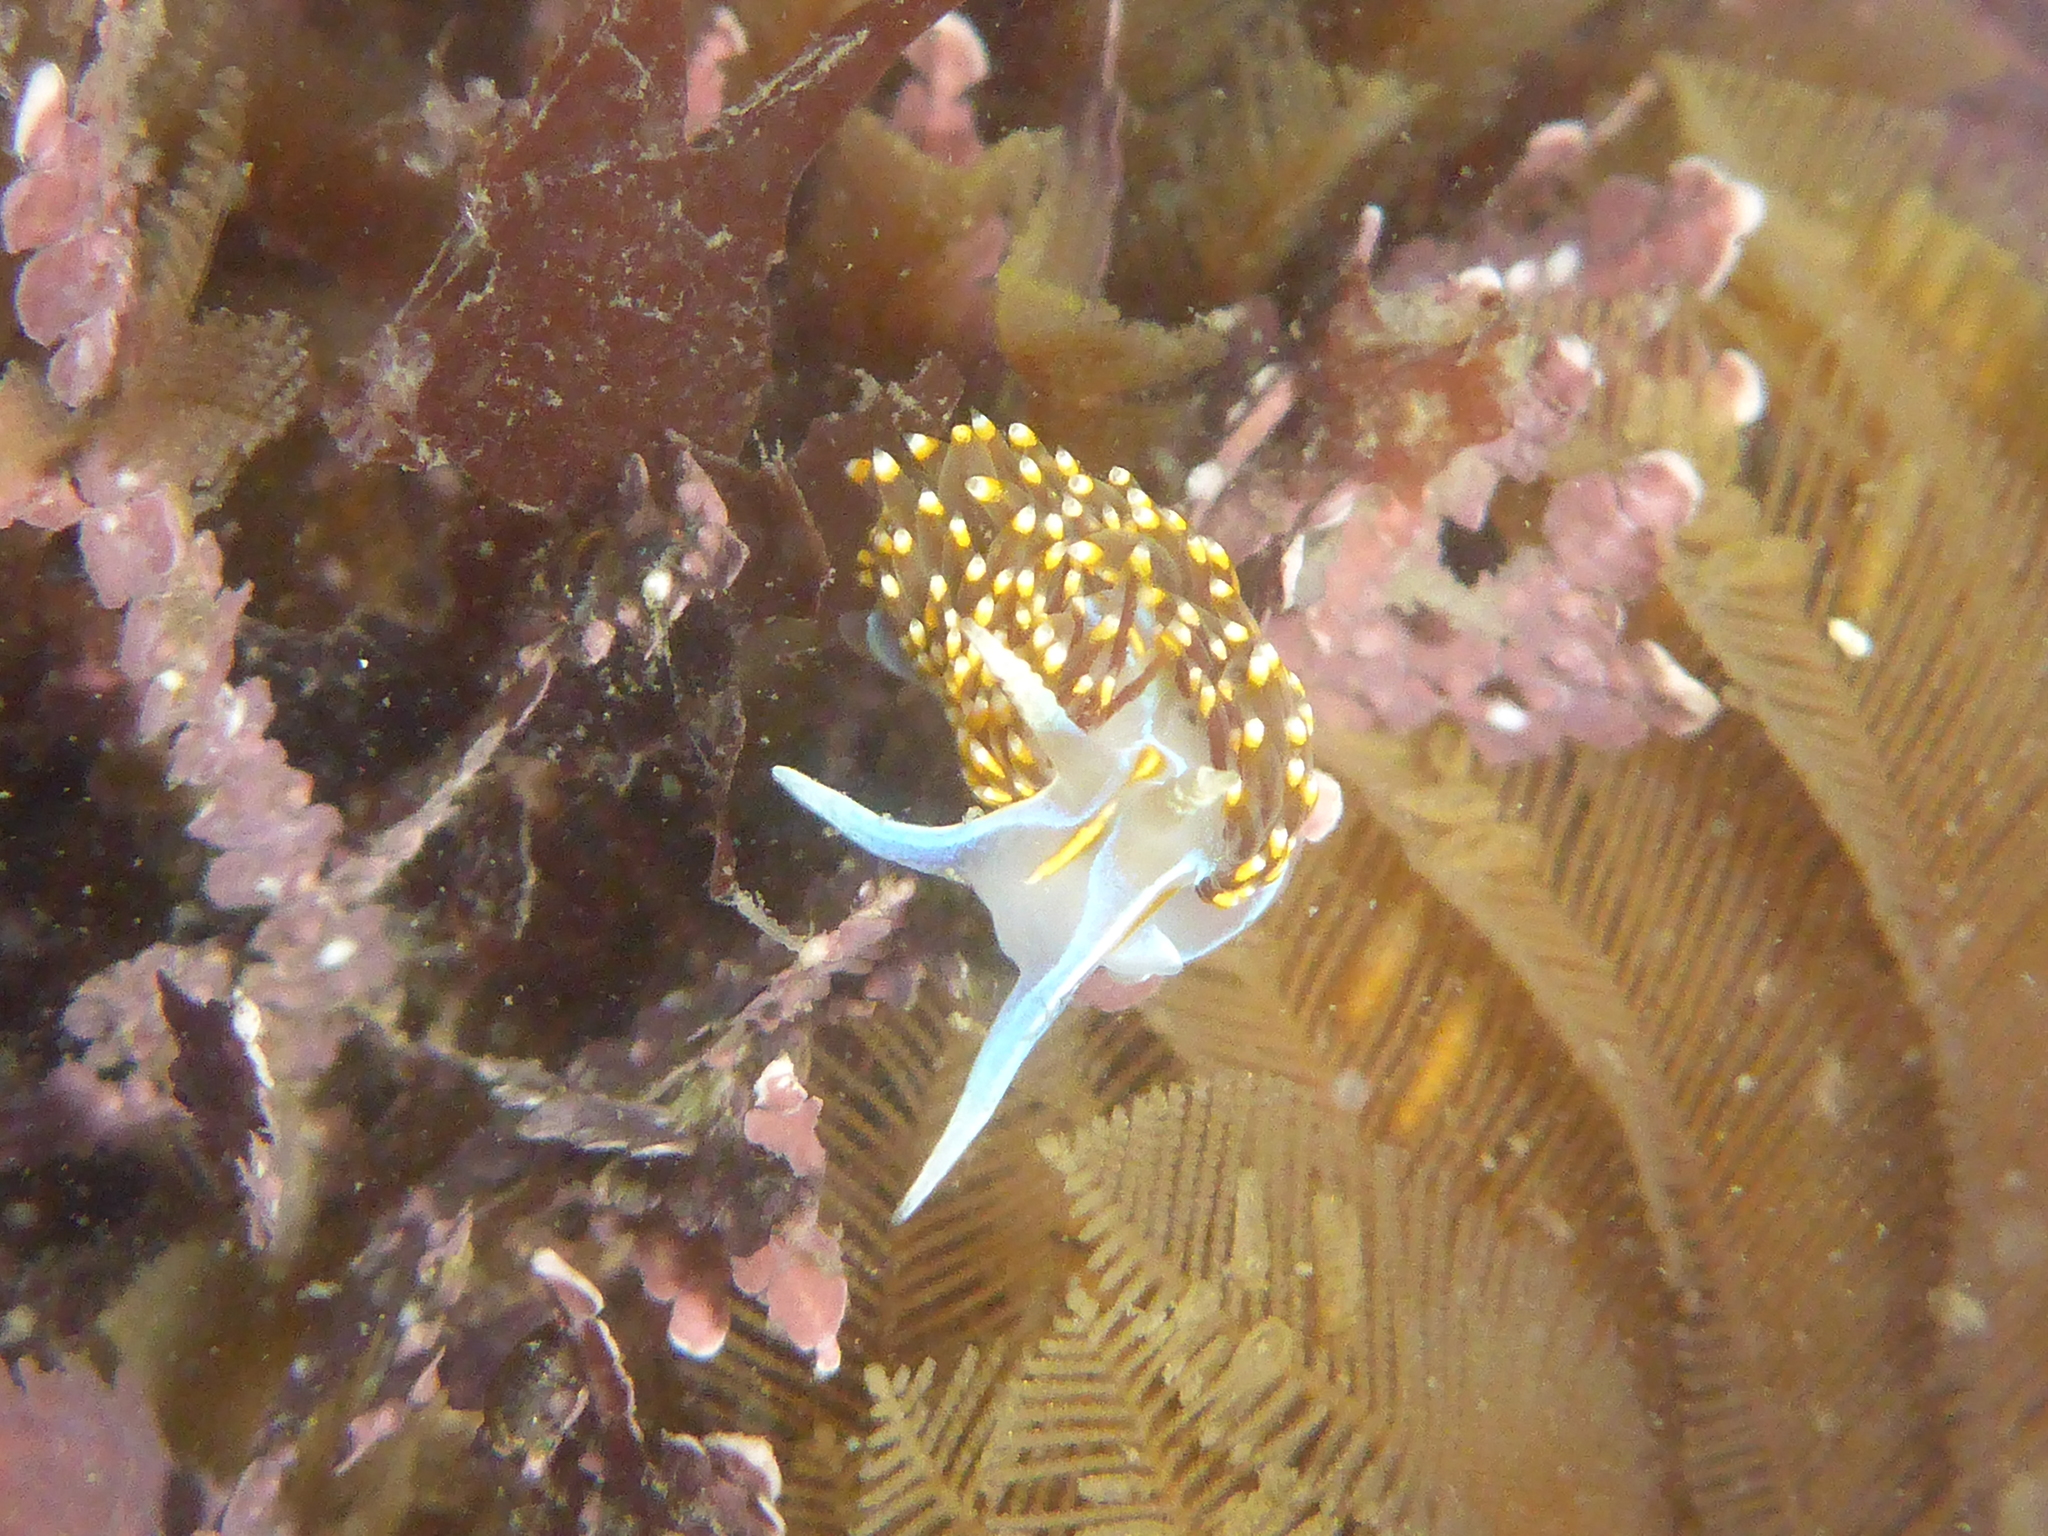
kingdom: Animalia
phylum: Mollusca
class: Gastropoda
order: Nudibranchia
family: Myrrhinidae
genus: Hermissenda
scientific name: Hermissenda opalescens
